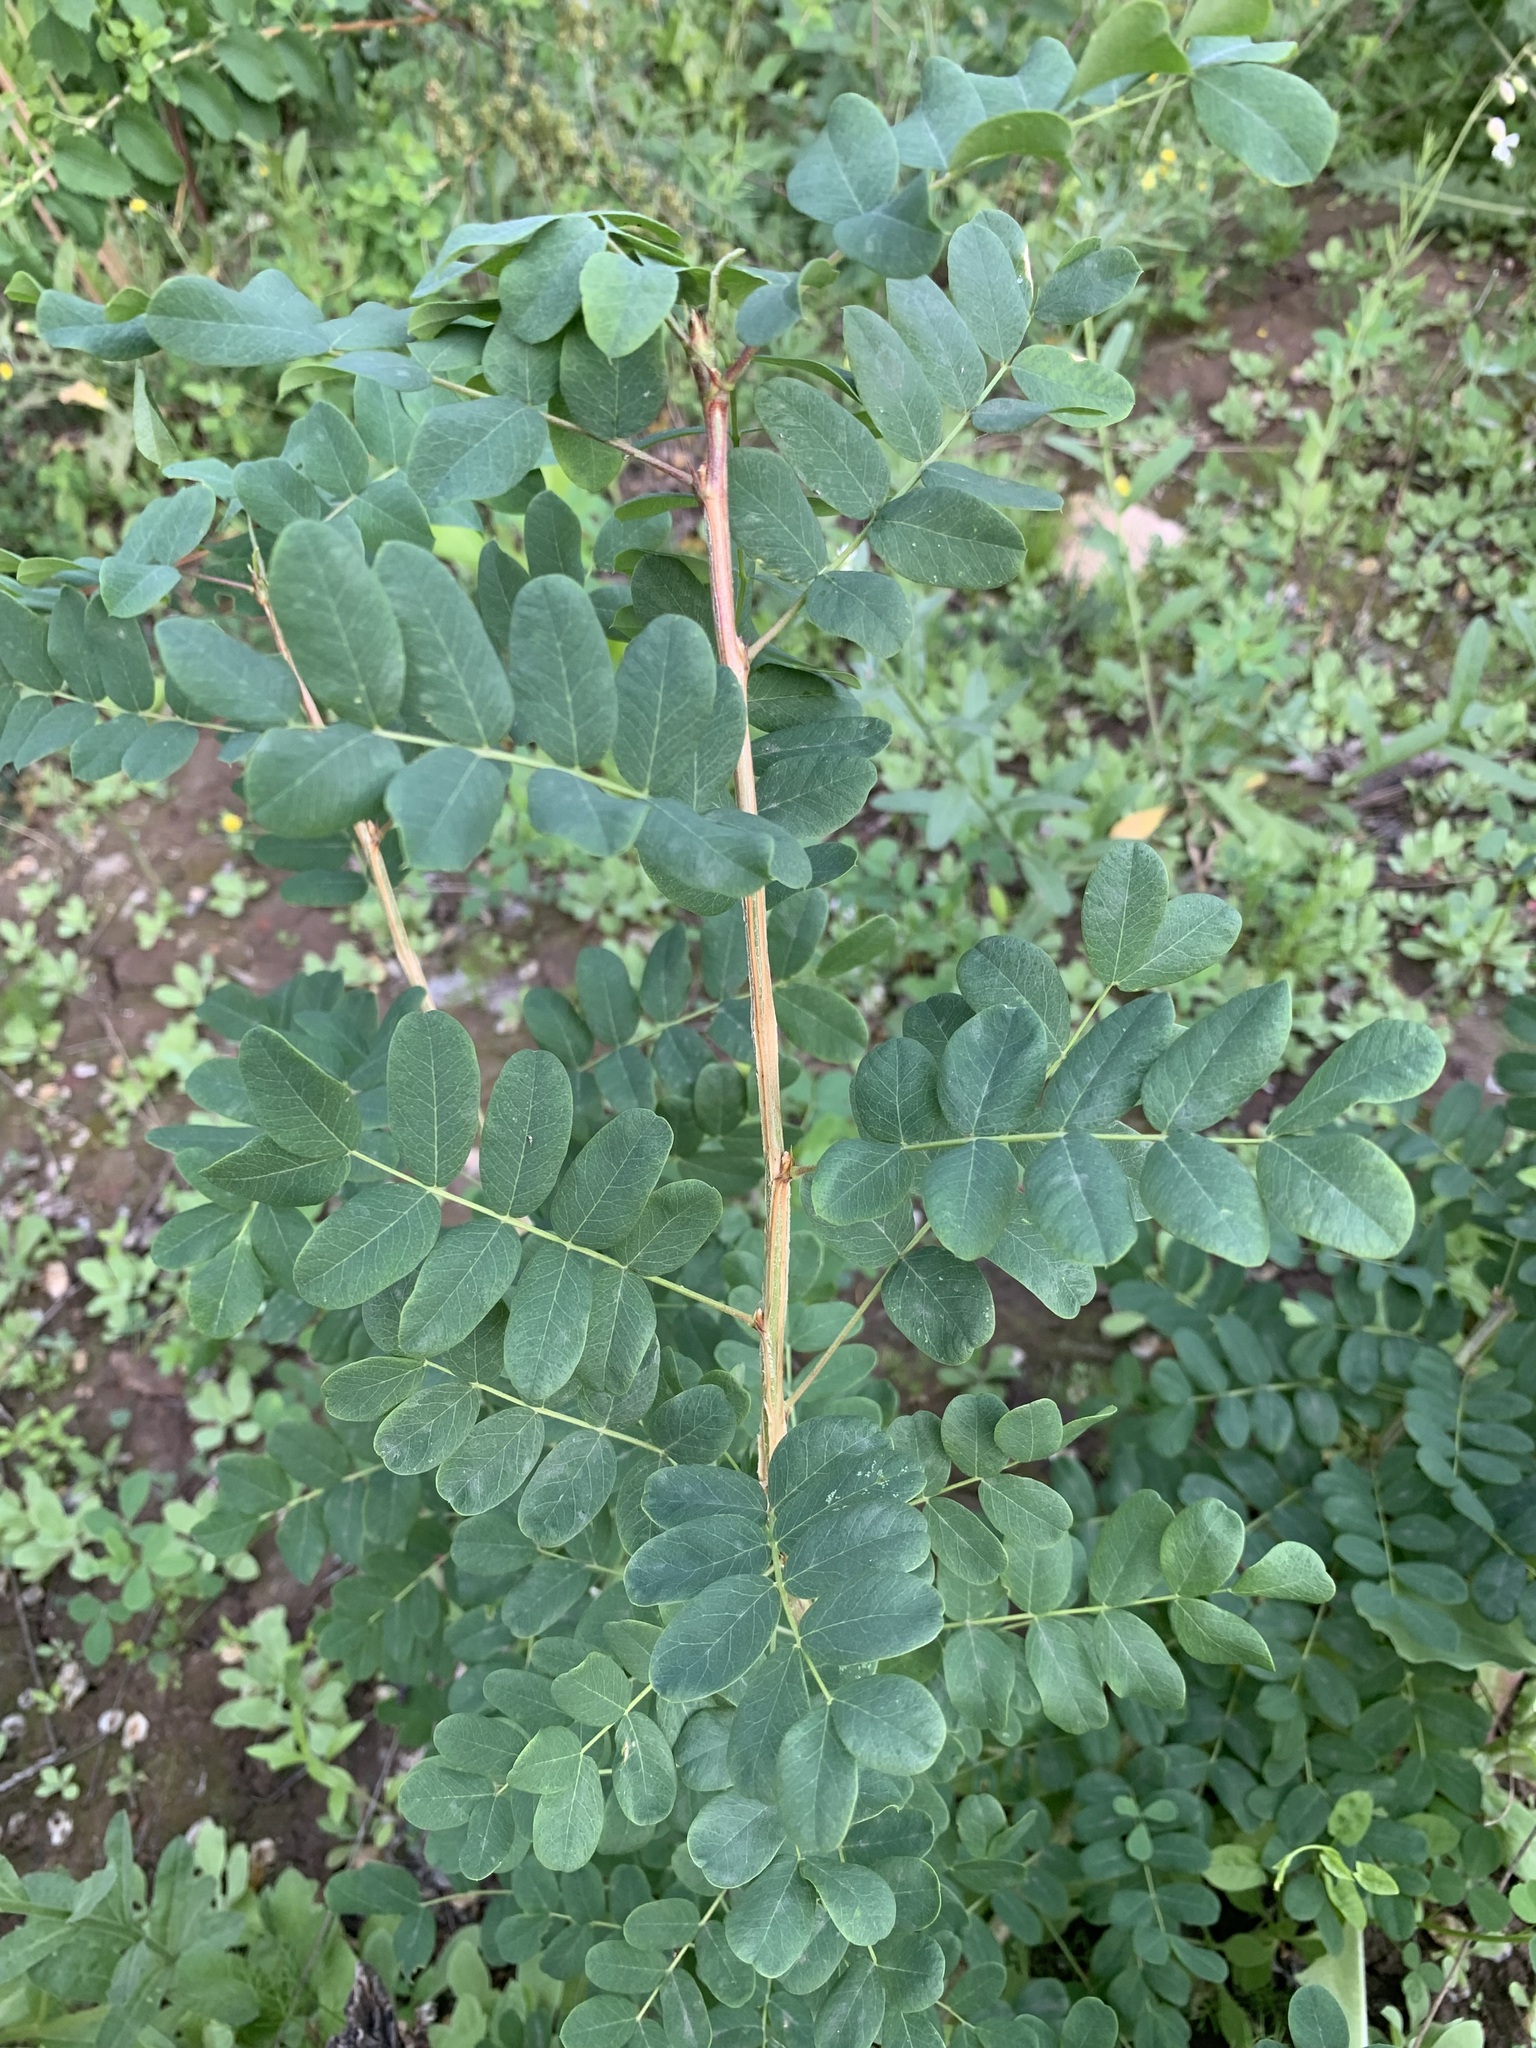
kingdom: Plantae
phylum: Tracheophyta
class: Magnoliopsida
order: Fabales
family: Fabaceae
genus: Caragana
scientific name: Caragana arborescens
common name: Siberian peashrub
